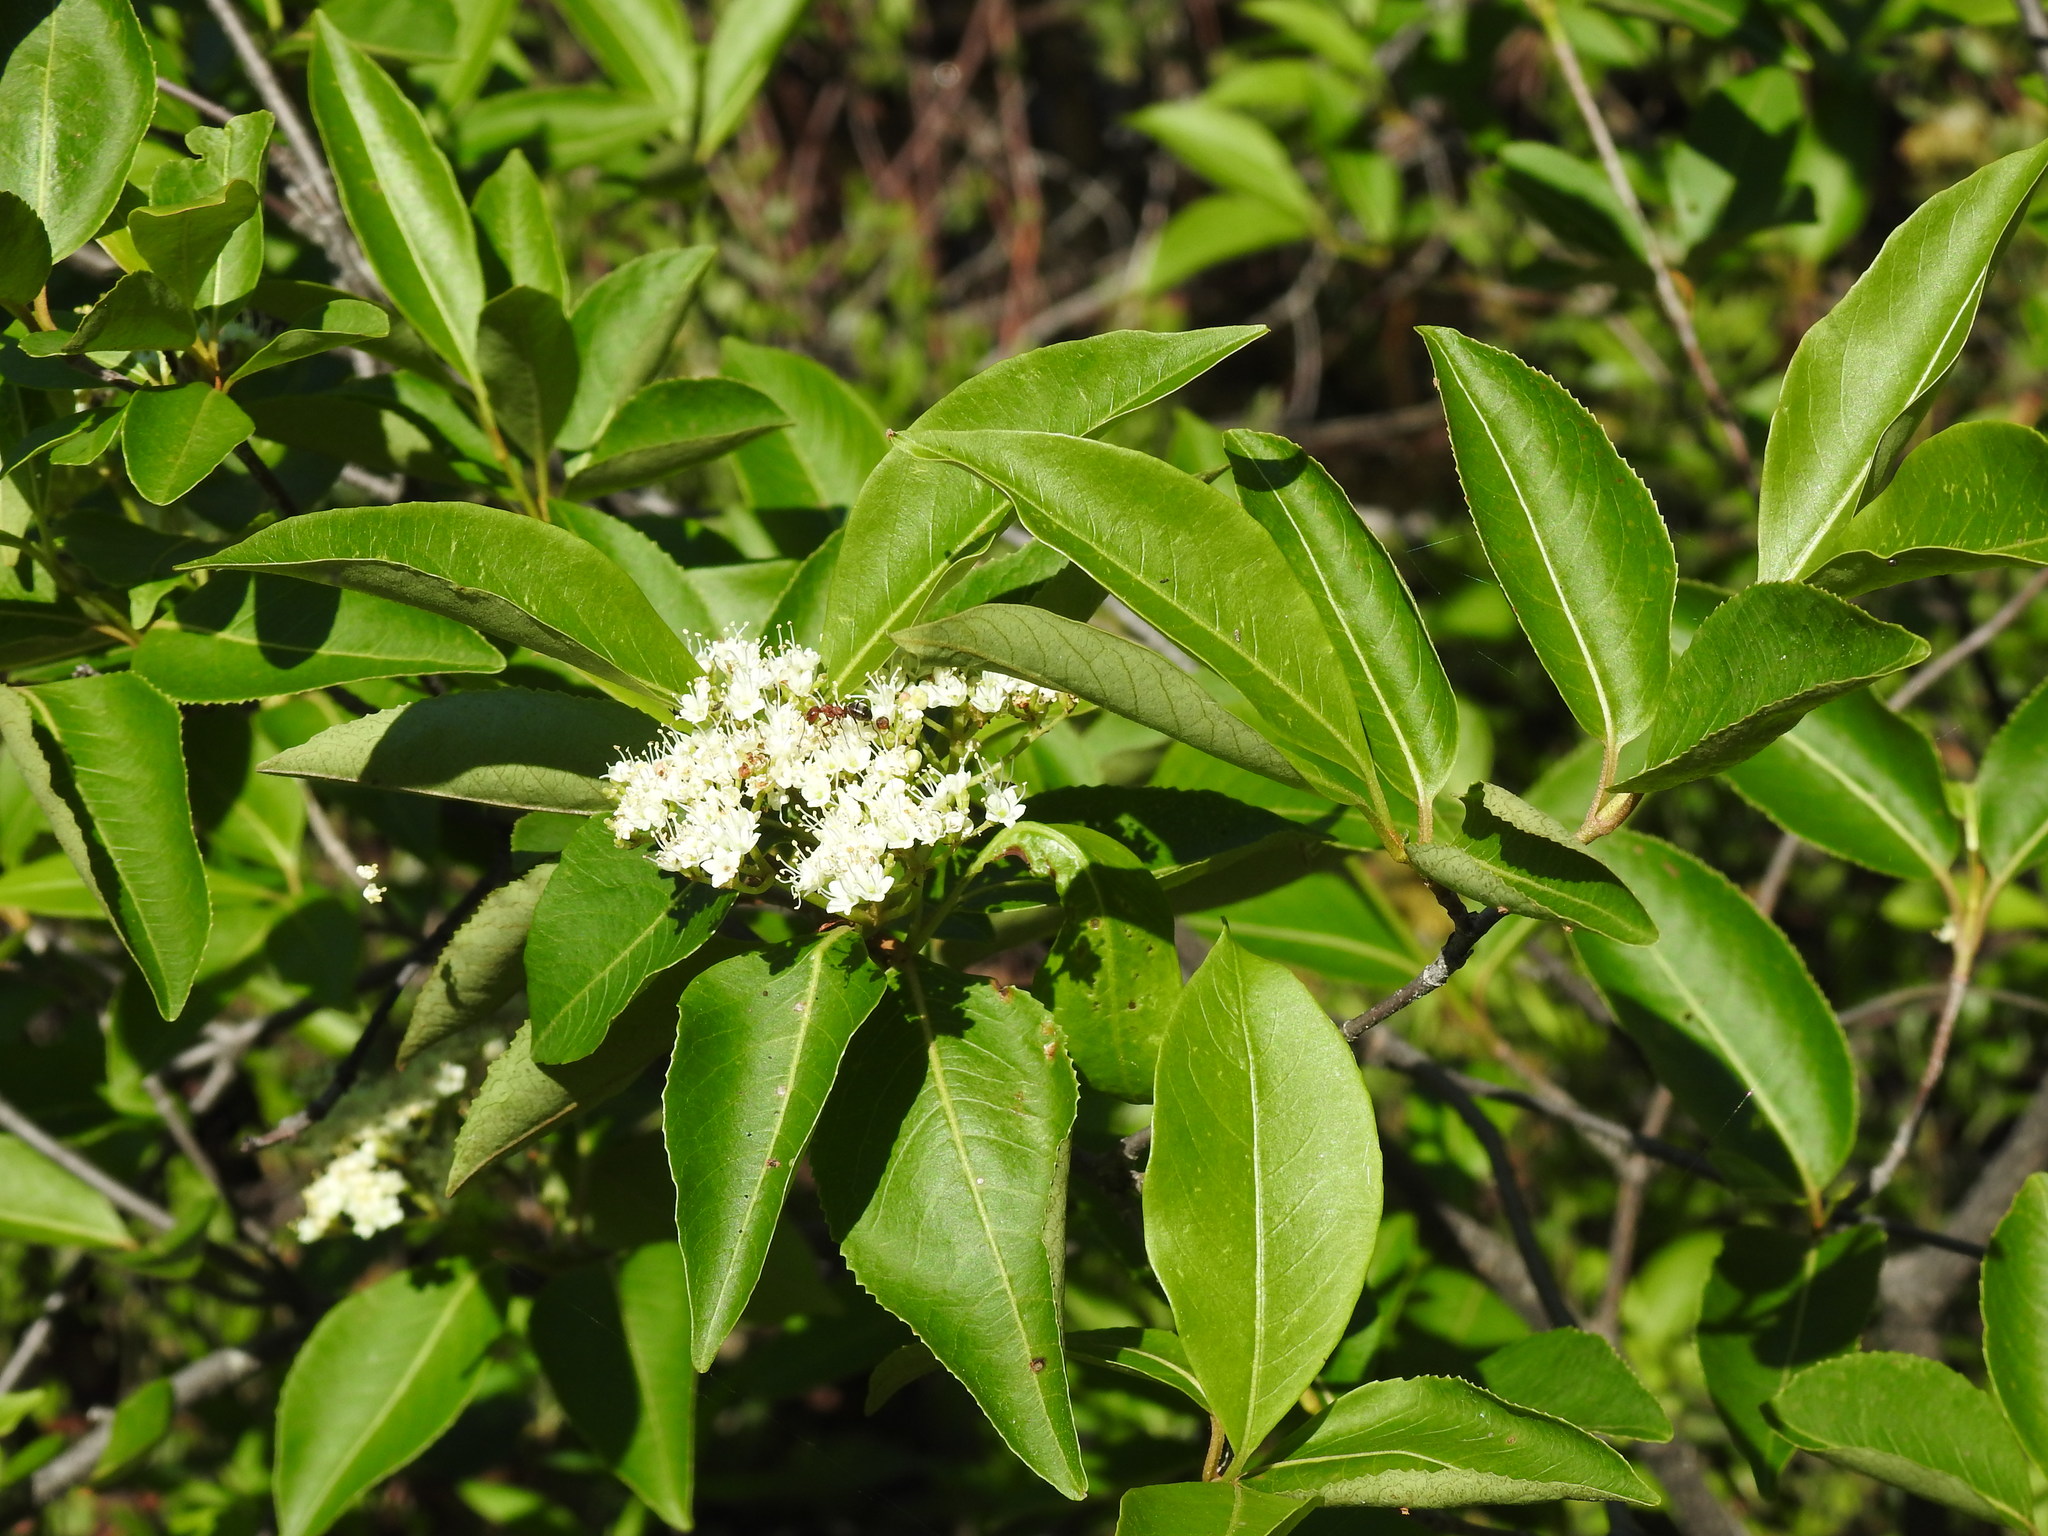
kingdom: Plantae
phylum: Tracheophyta
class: Magnoliopsida
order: Dipsacales
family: Viburnaceae
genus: Viburnum
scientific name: Viburnum cassinoides
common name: Swamp haw
